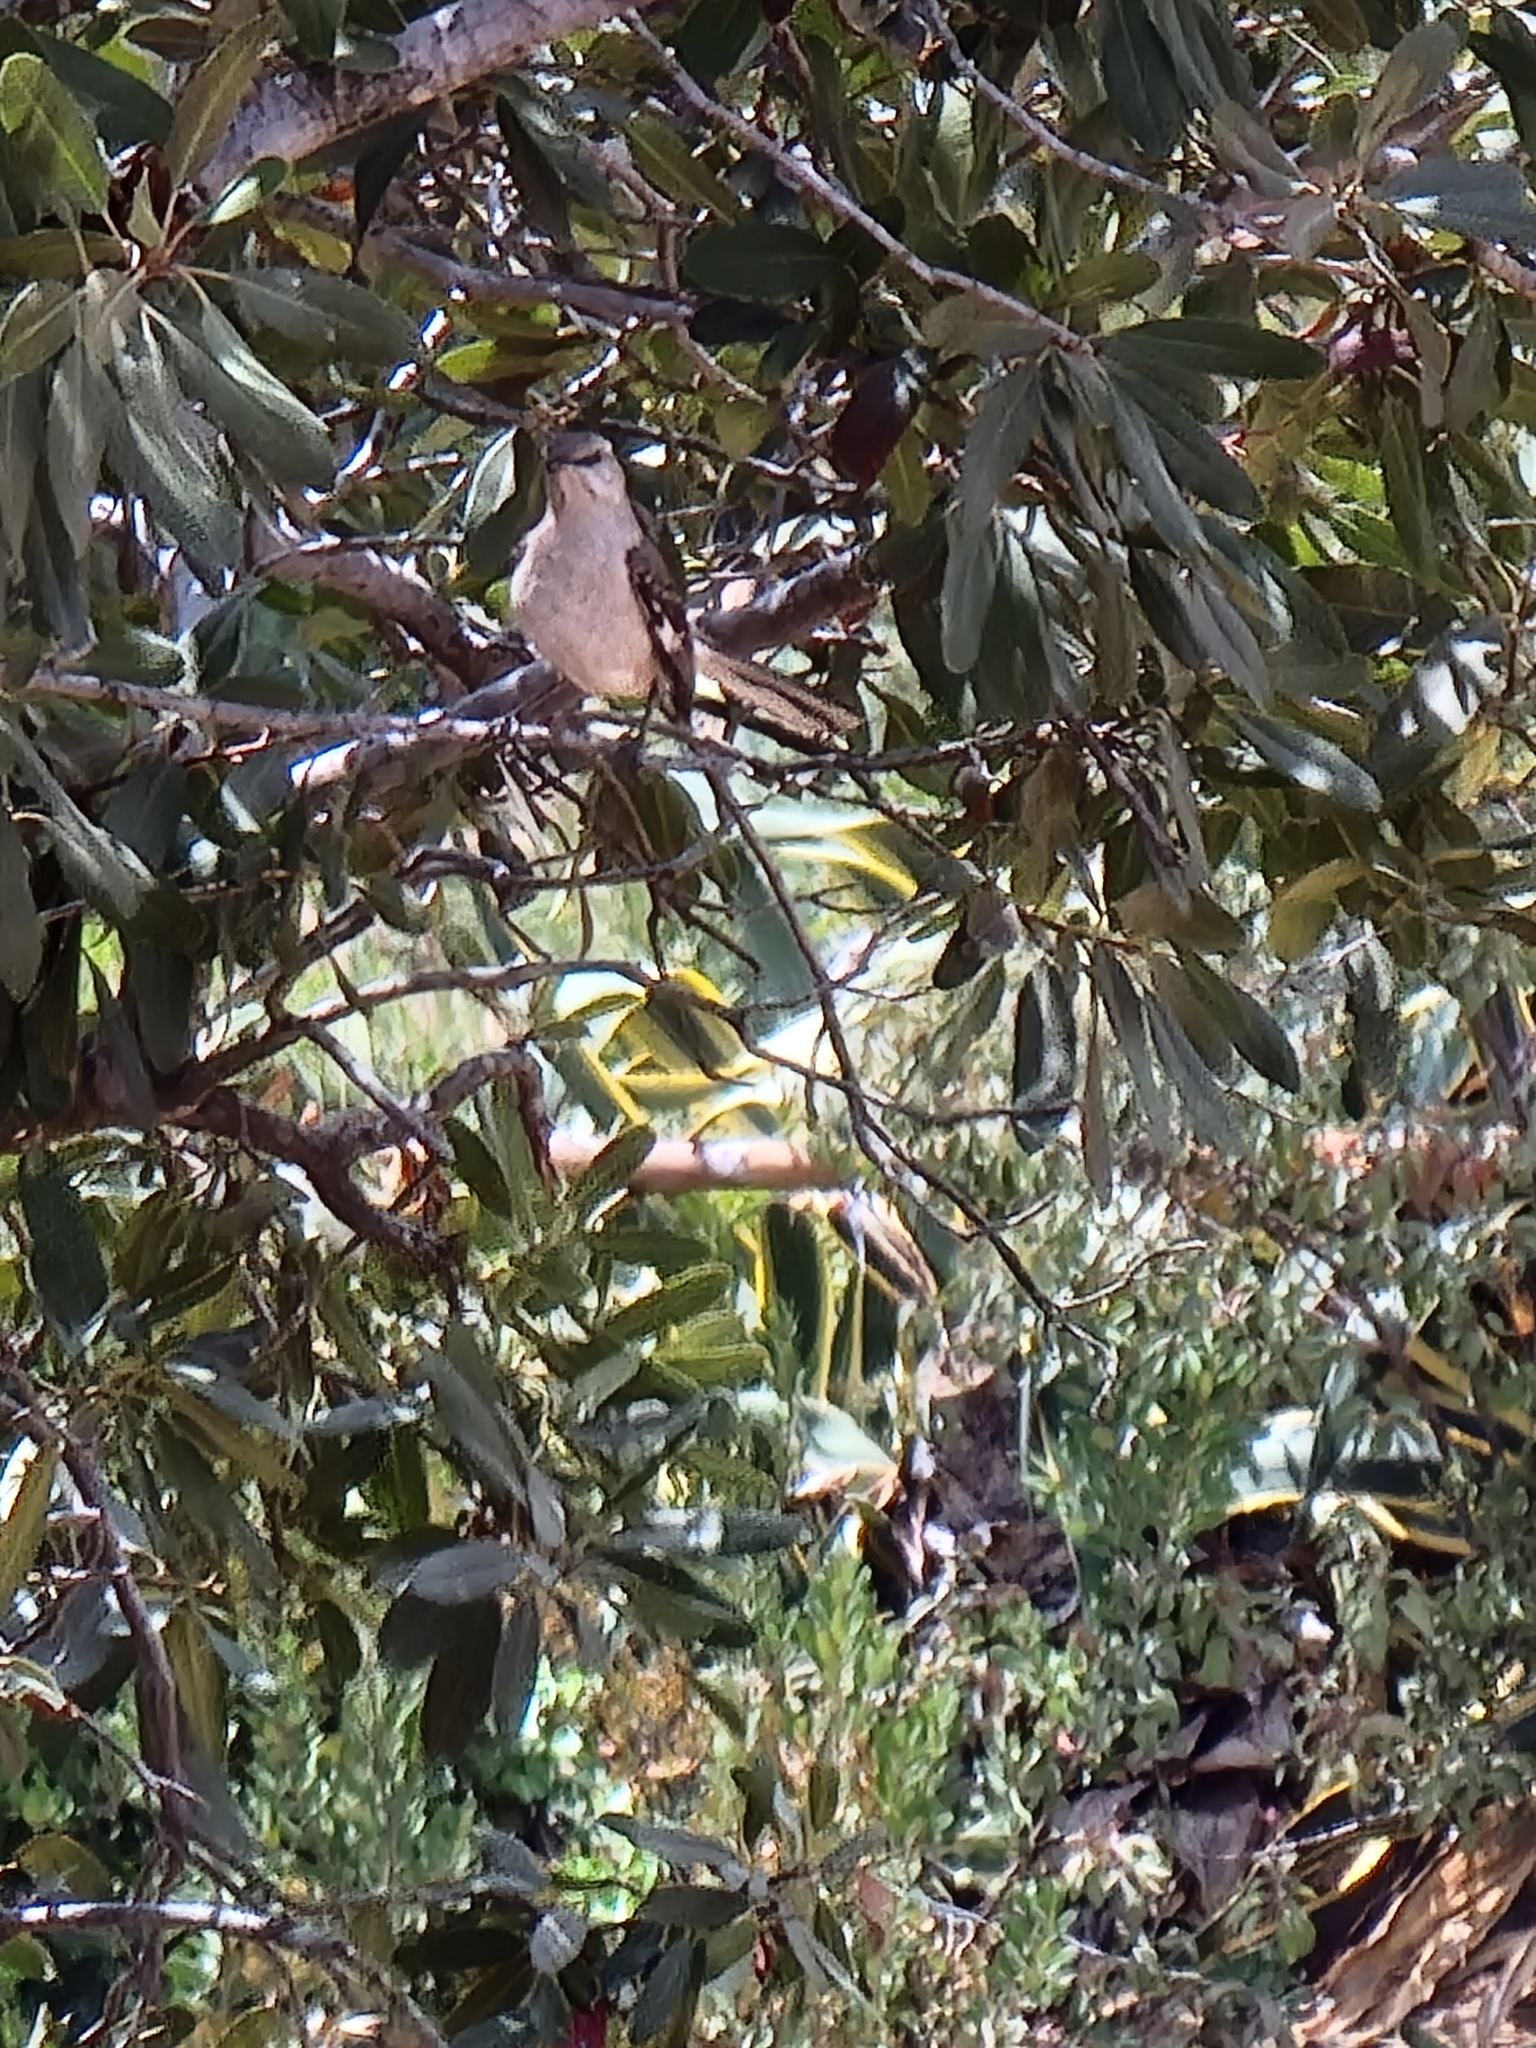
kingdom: Animalia
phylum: Chordata
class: Aves
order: Passeriformes
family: Mimidae
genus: Mimus
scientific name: Mimus polyglottos
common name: Northern mockingbird
